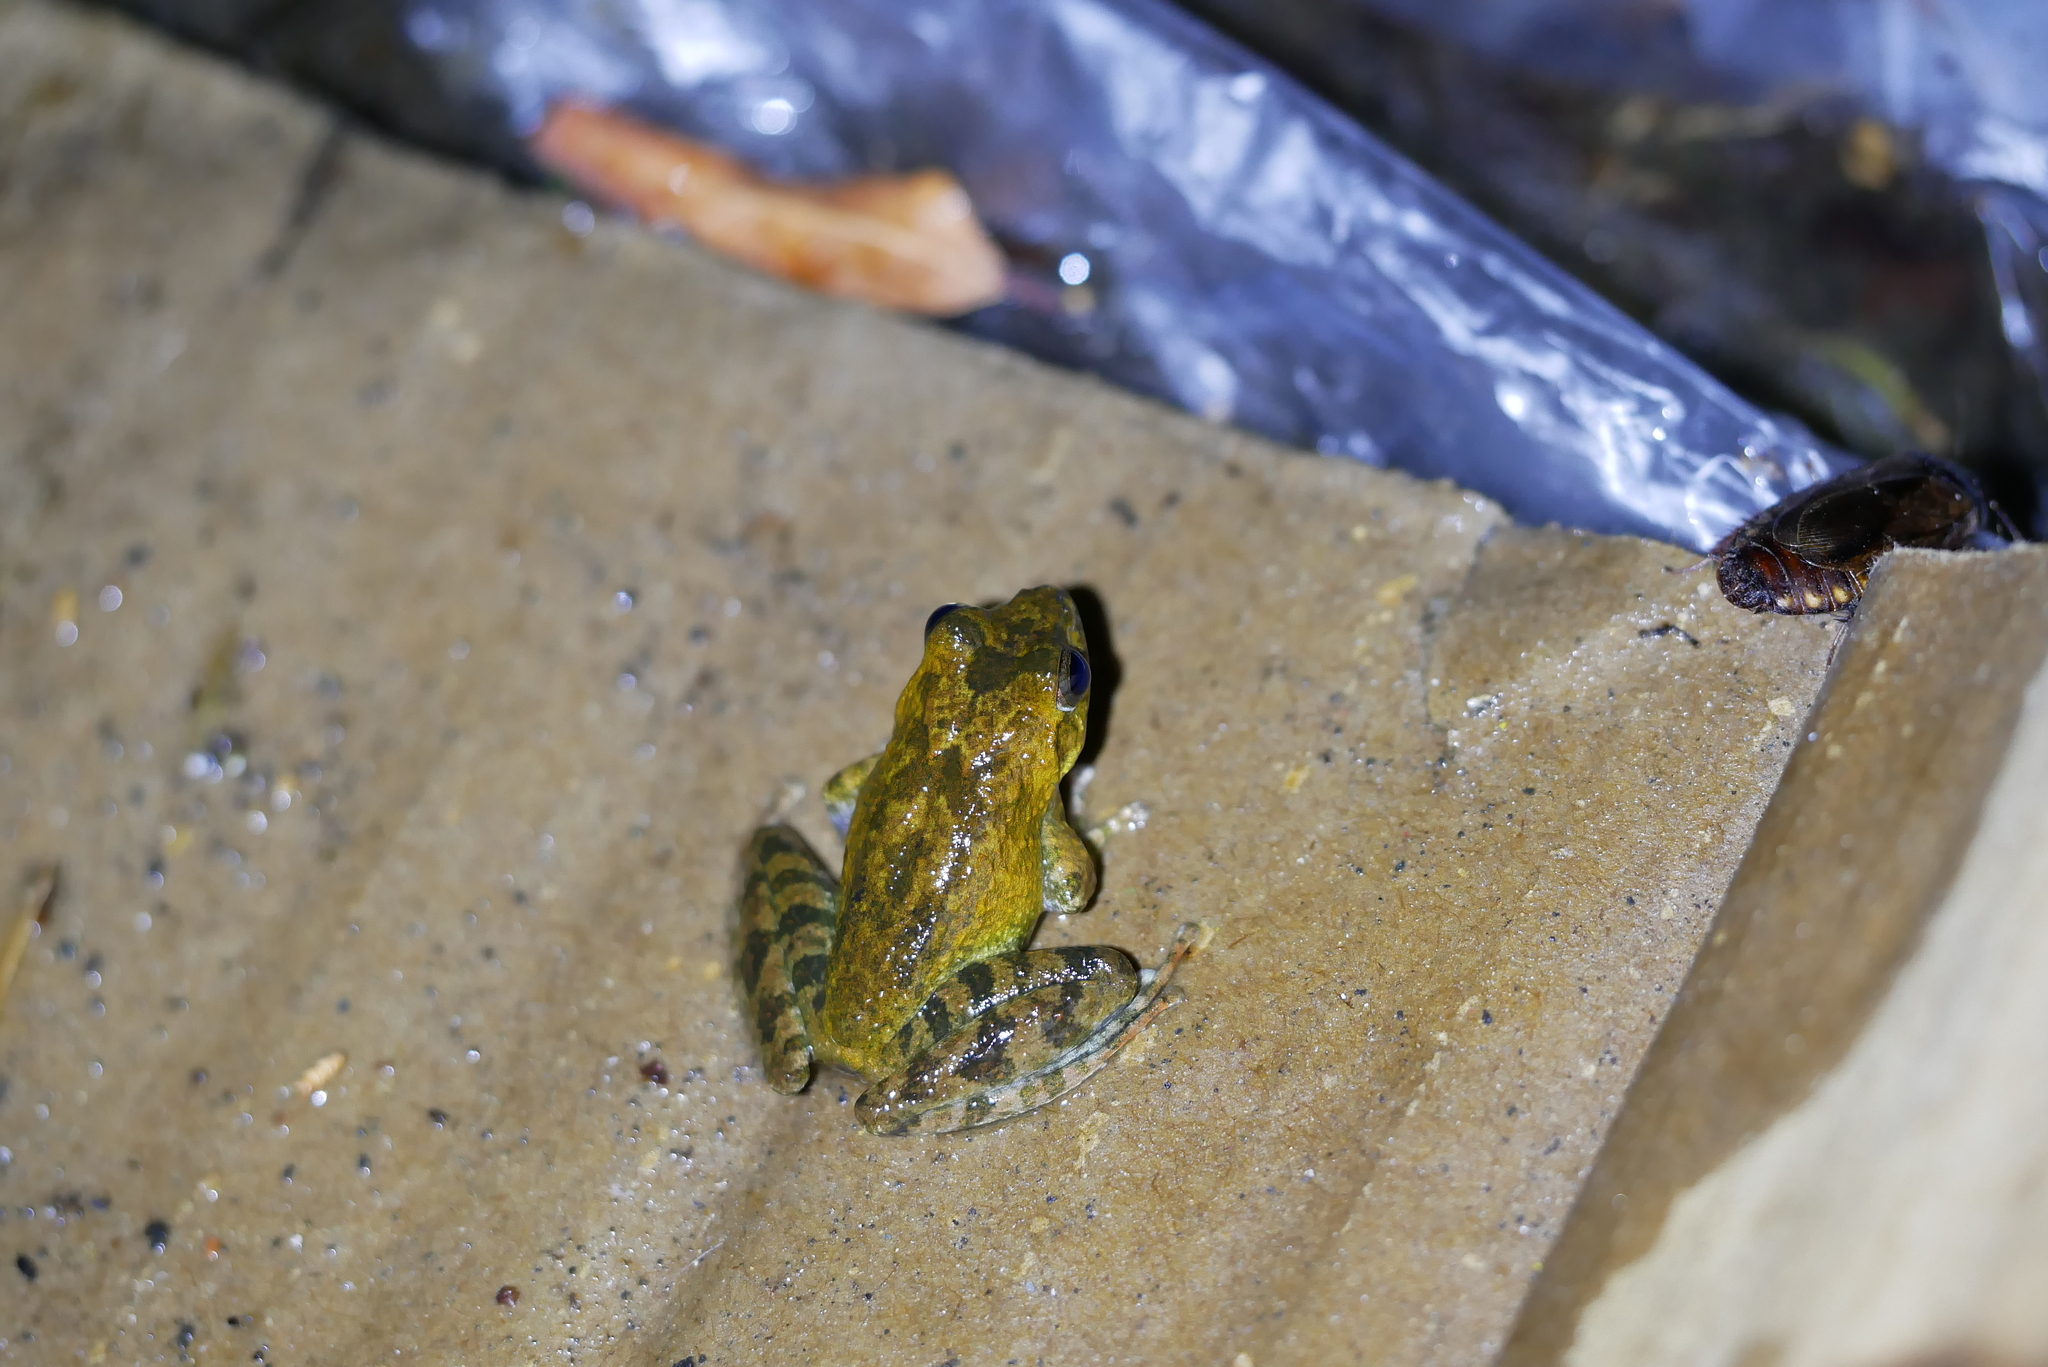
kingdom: Animalia
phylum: Chordata
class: Amphibia
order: Anura
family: Rhacophoridae
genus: Buergeria
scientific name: Buergeria otai
